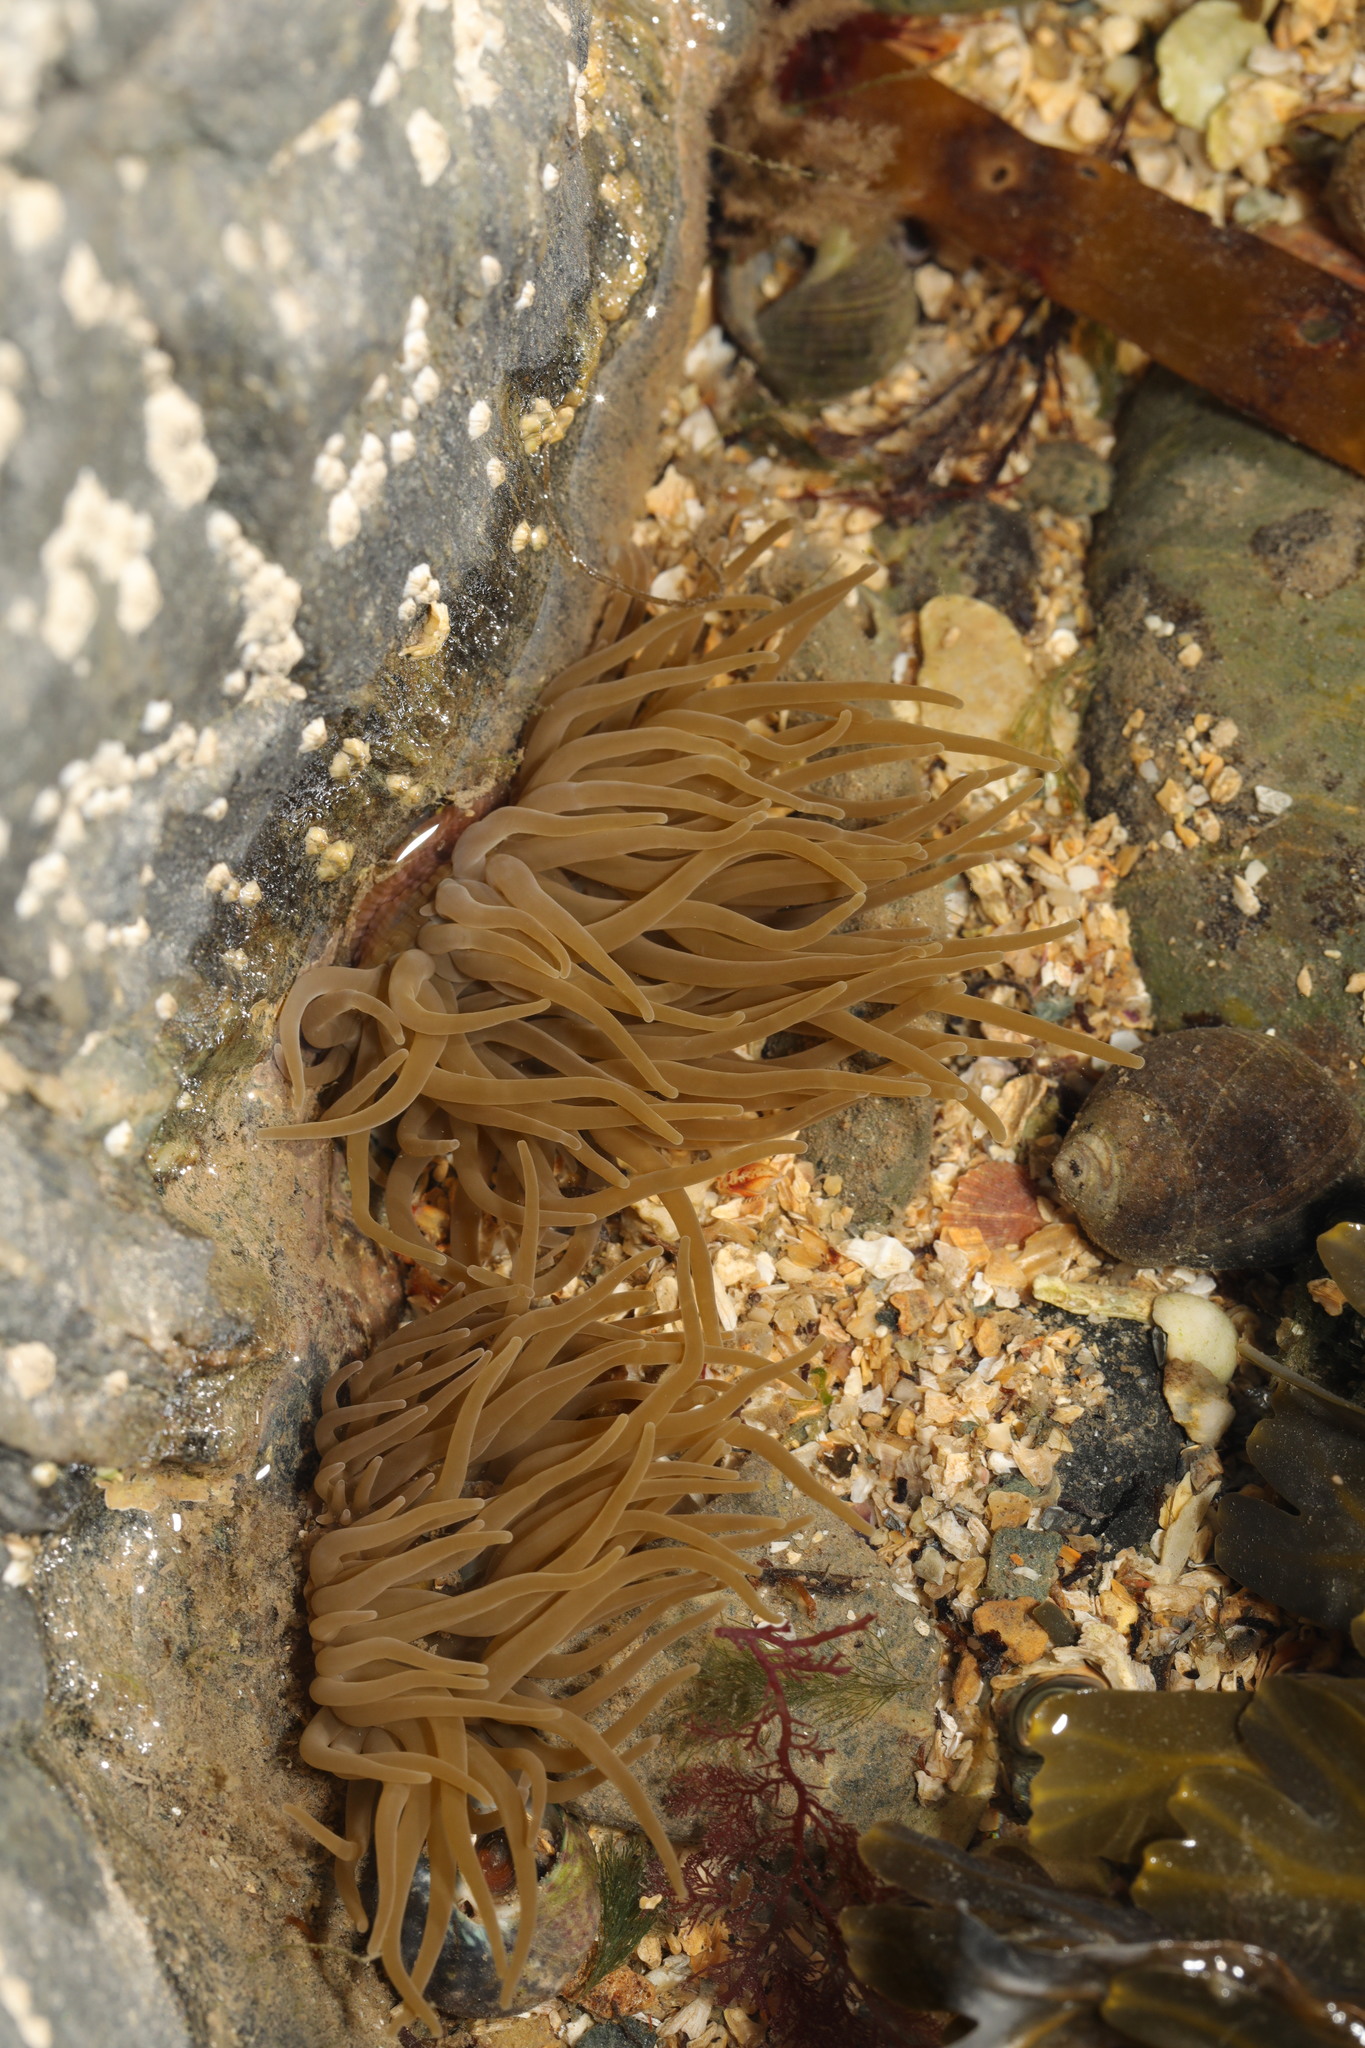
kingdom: Animalia
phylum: Cnidaria
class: Anthozoa
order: Actiniaria
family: Actiniidae
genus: Anemonia
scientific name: Anemonia viridis
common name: Snakelocks anemone
